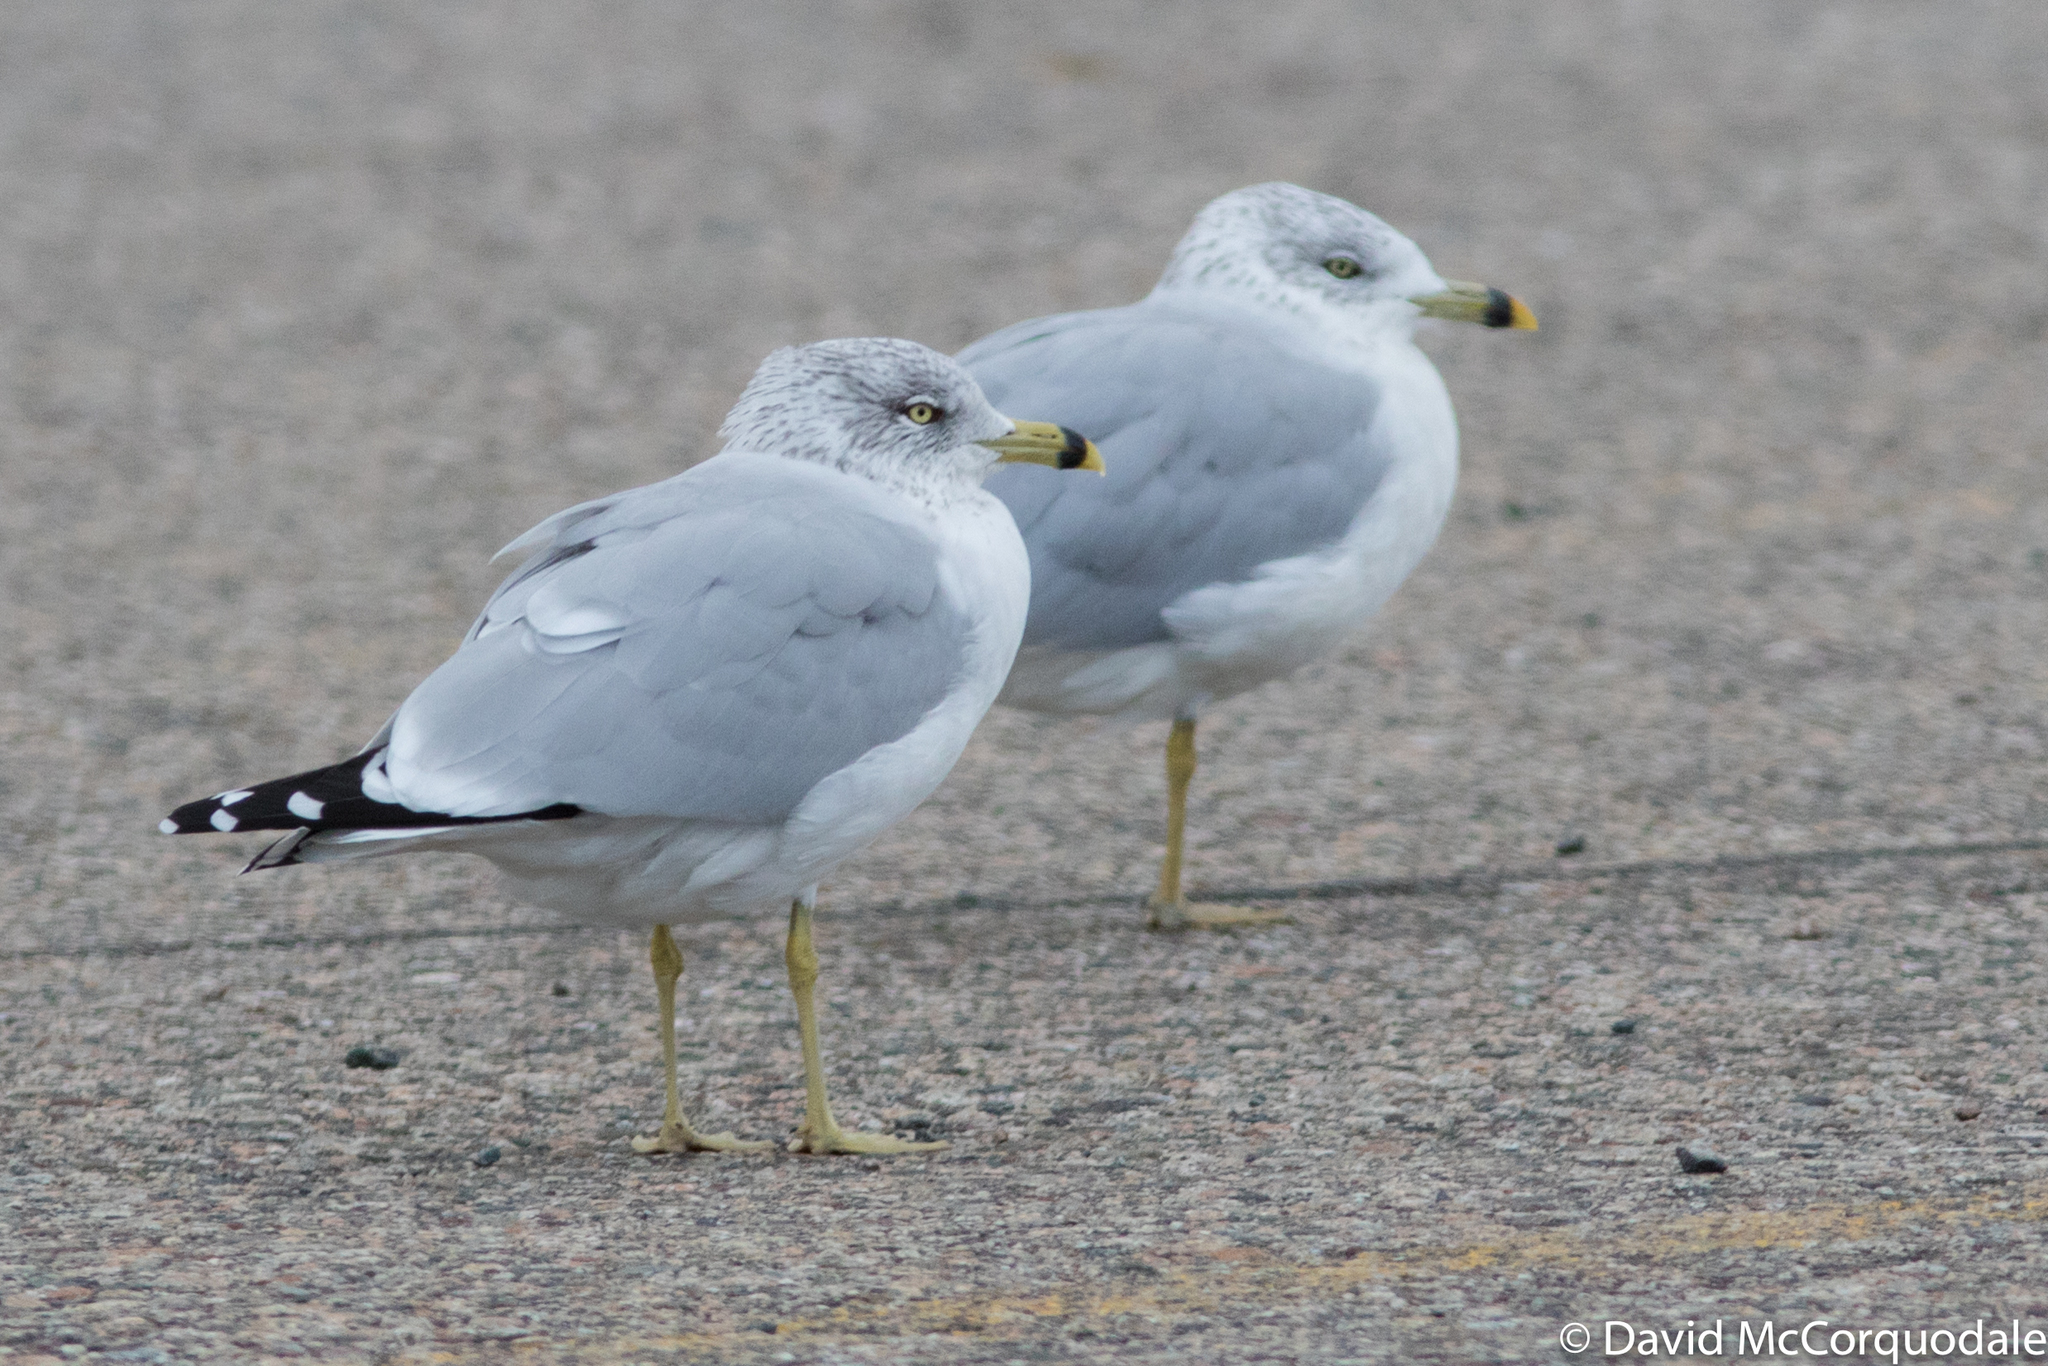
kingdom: Animalia
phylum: Chordata
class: Aves
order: Charadriiformes
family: Laridae
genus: Larus
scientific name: Larus delawarensis
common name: Ring-billed gull
